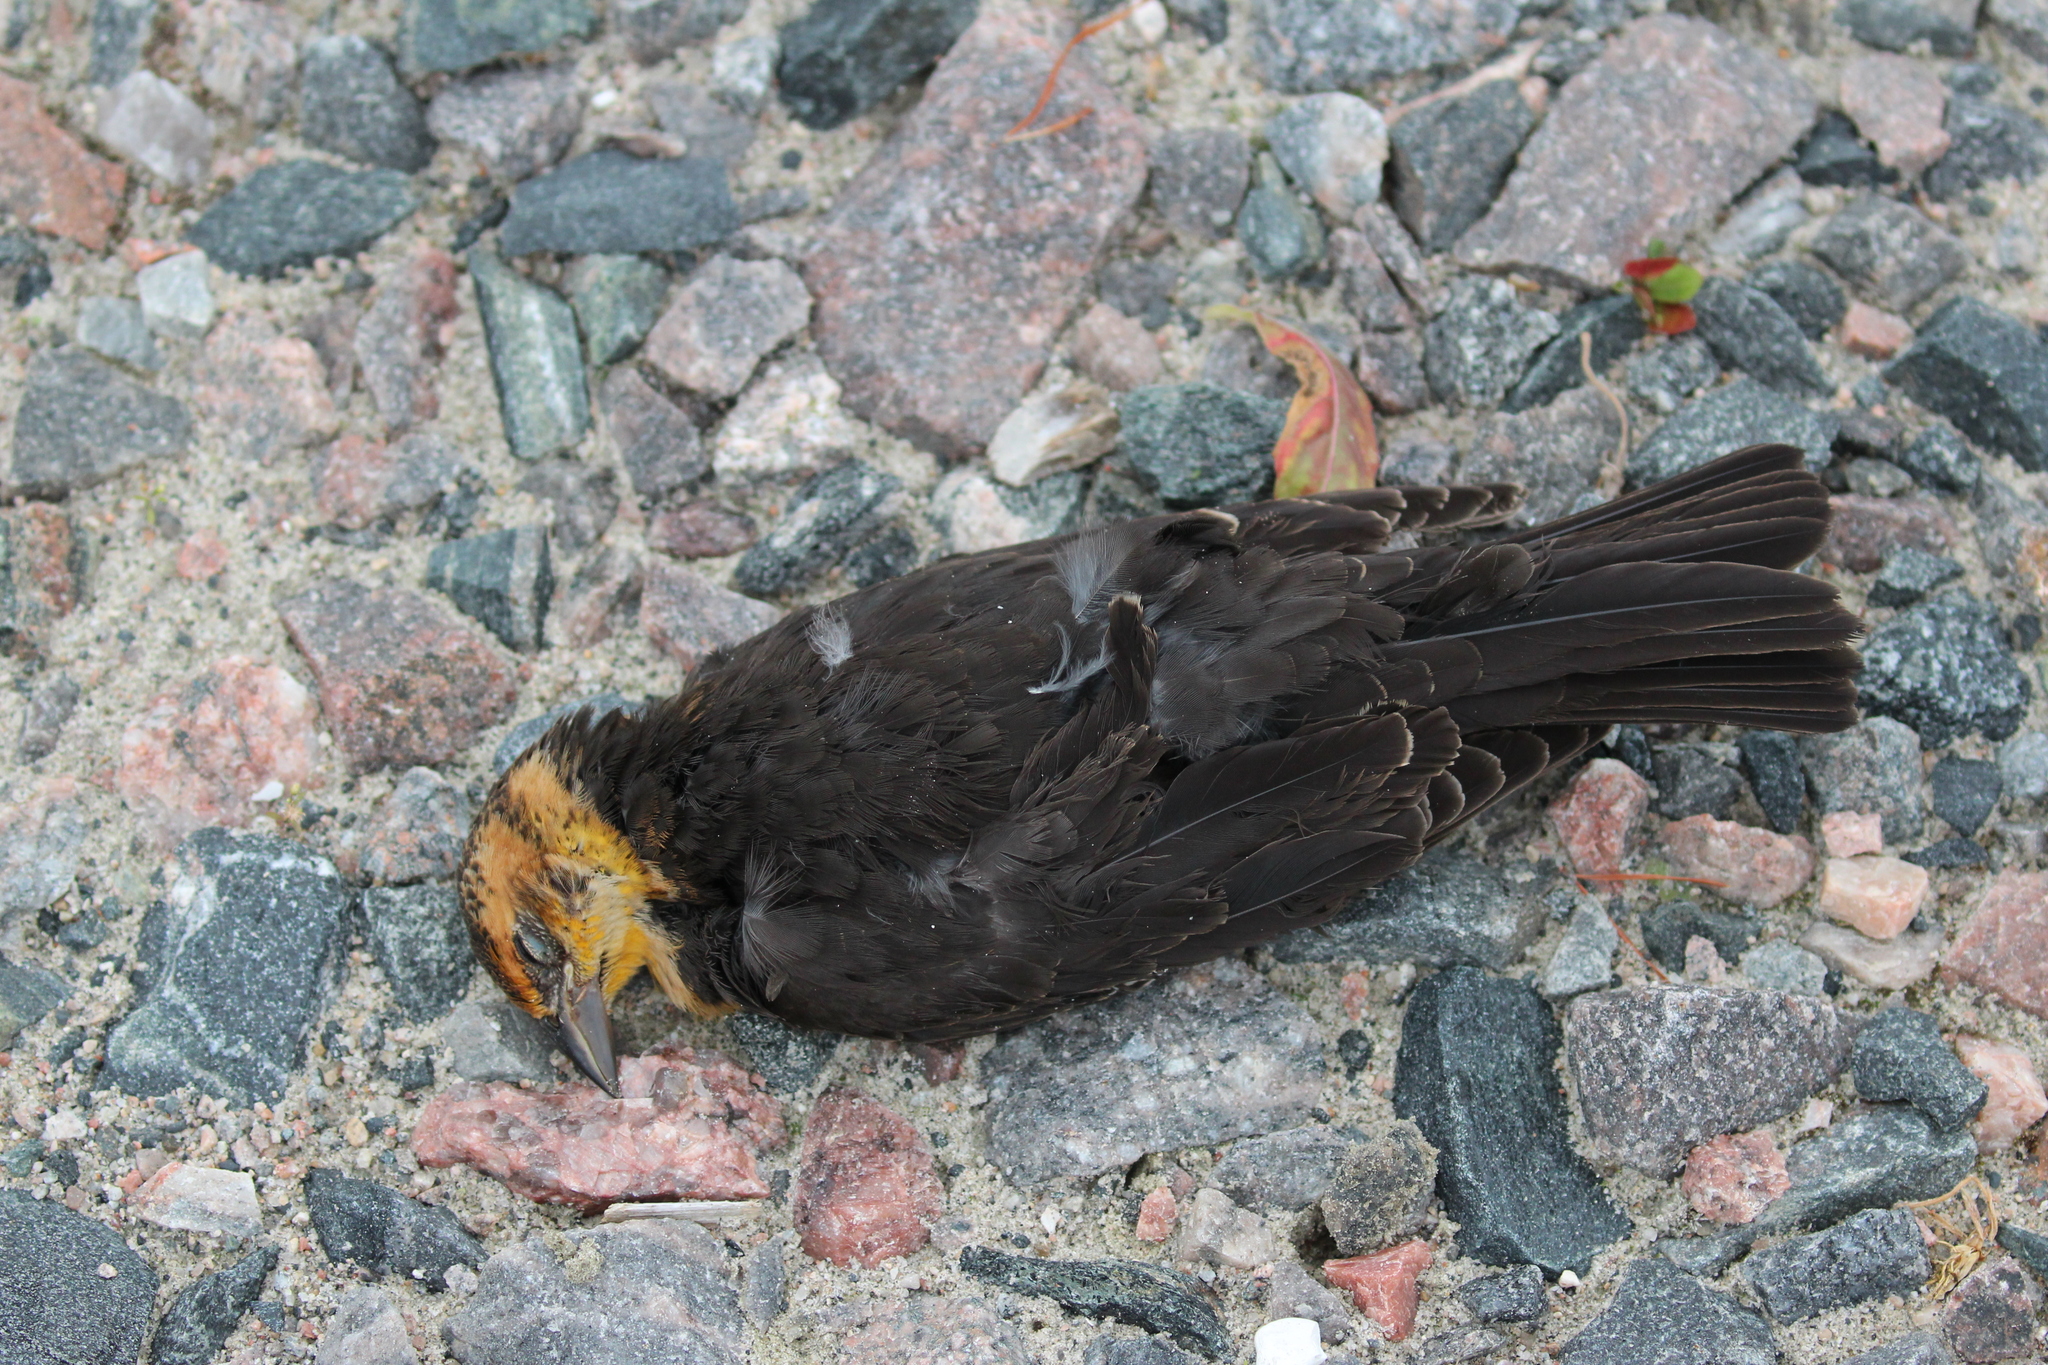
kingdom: Animalia
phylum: Chordata
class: Aves
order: Passeriformes
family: Icteridae
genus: Xanthocephalus
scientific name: Xanthocephalus xanthocephalus
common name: Yellow-headed blackbird
